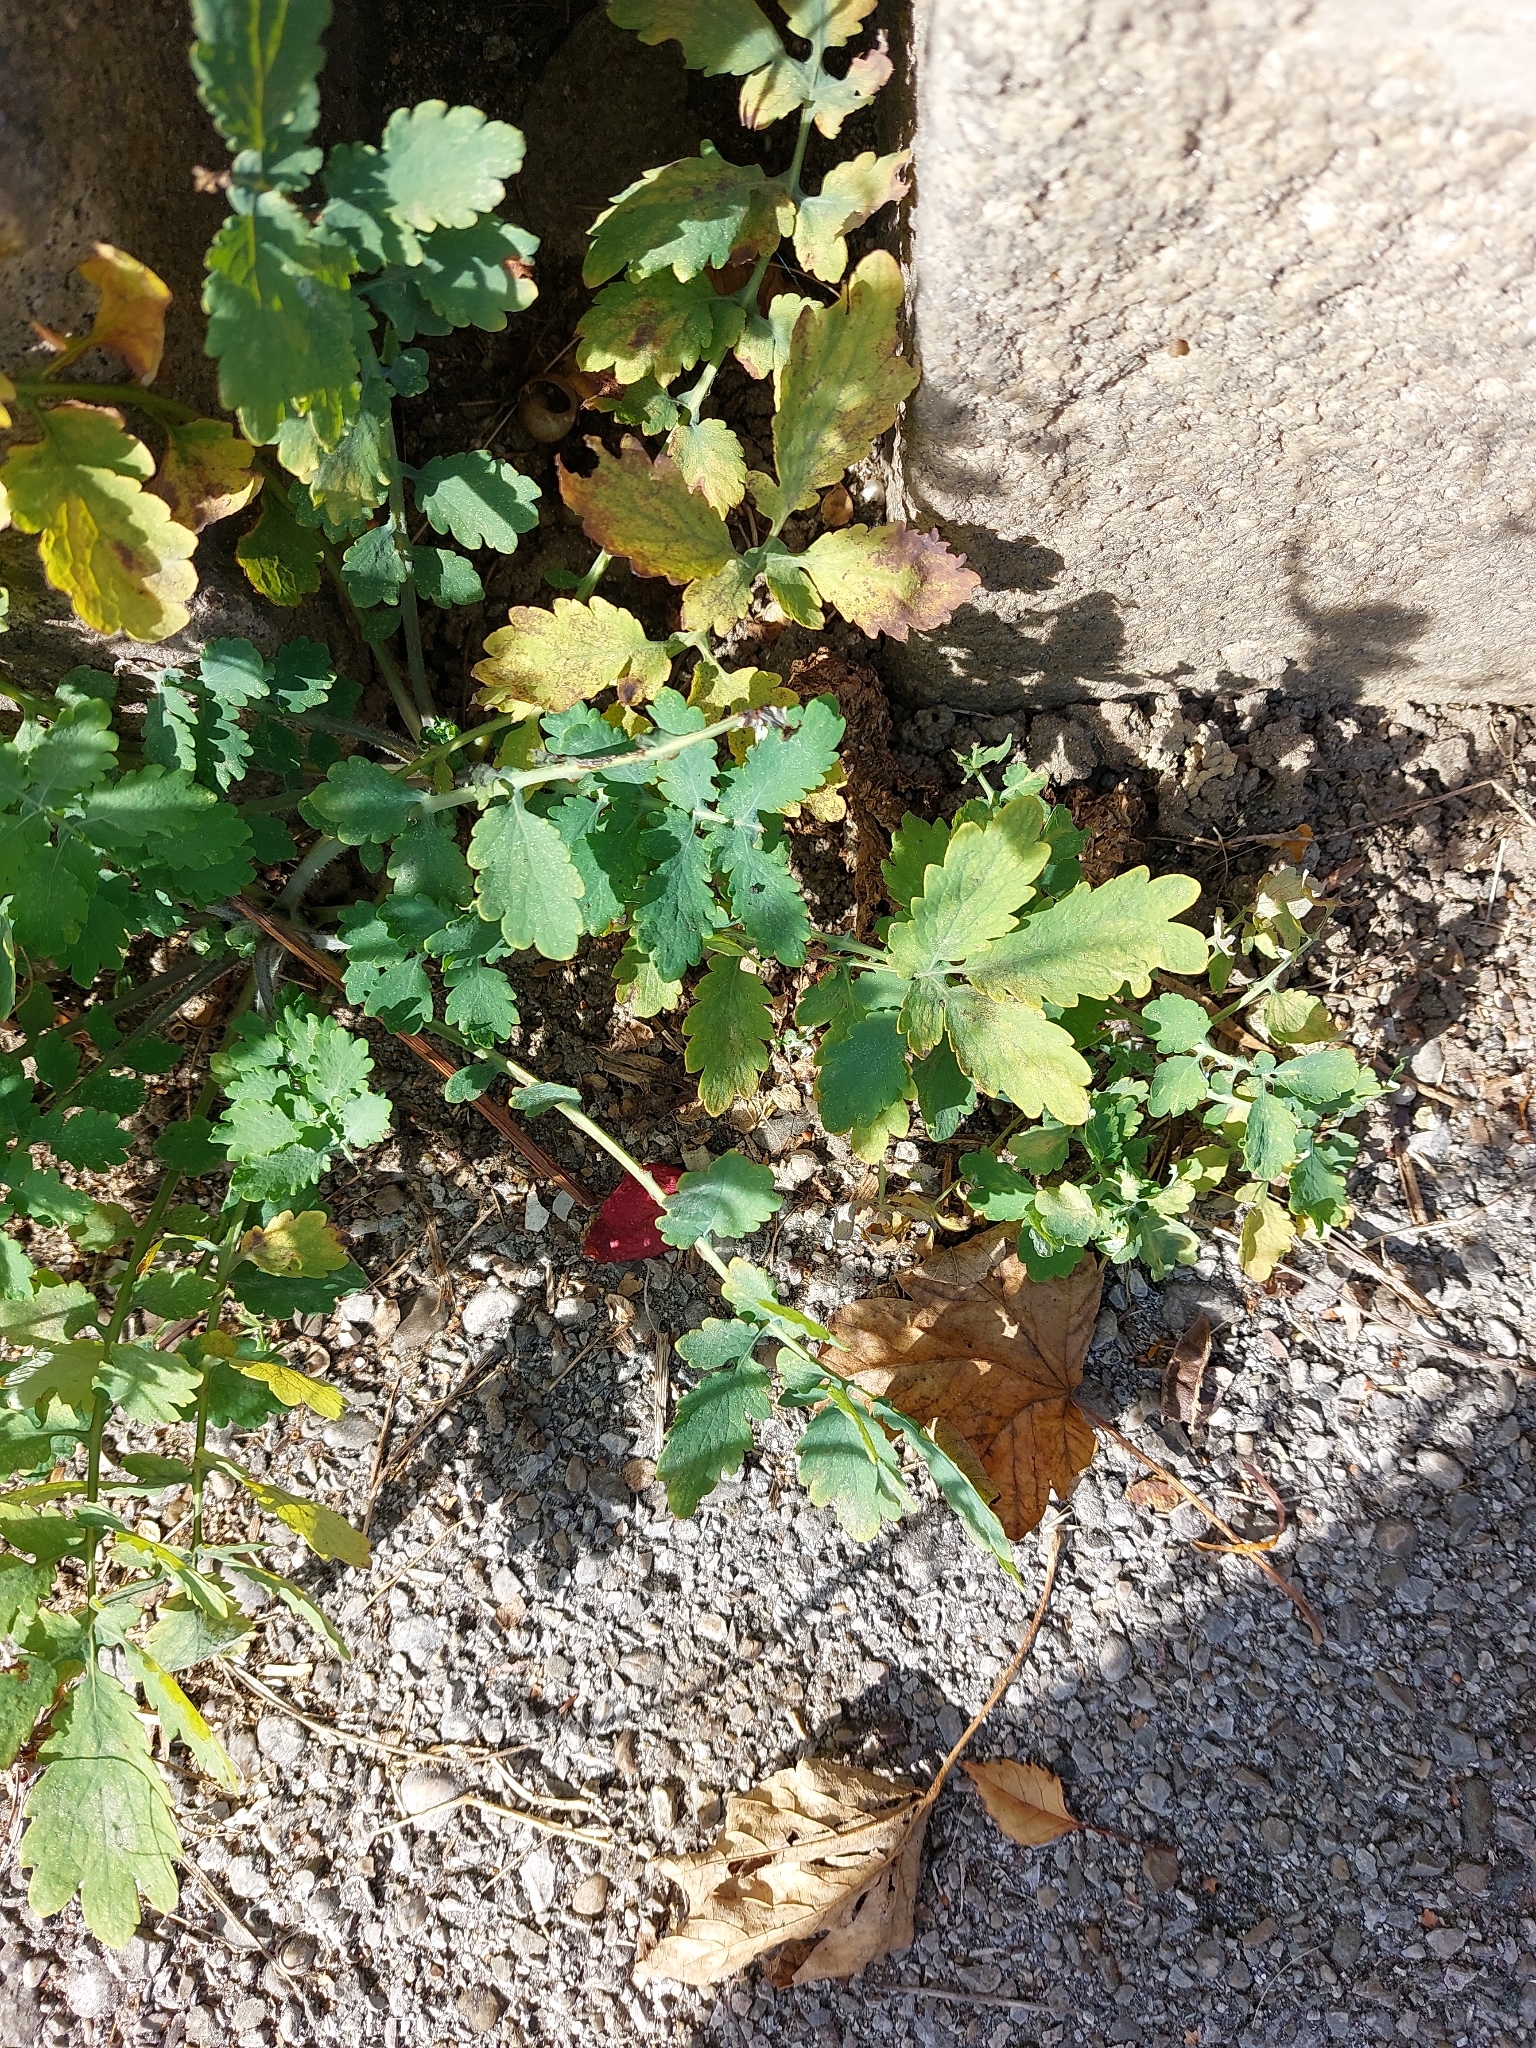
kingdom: Plantae
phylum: Tracheophyta
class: Magnoliopsida
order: Ranunculales
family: Papaveraceae
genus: Chelidonium
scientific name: Chelidonium majus
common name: Greater celandine
